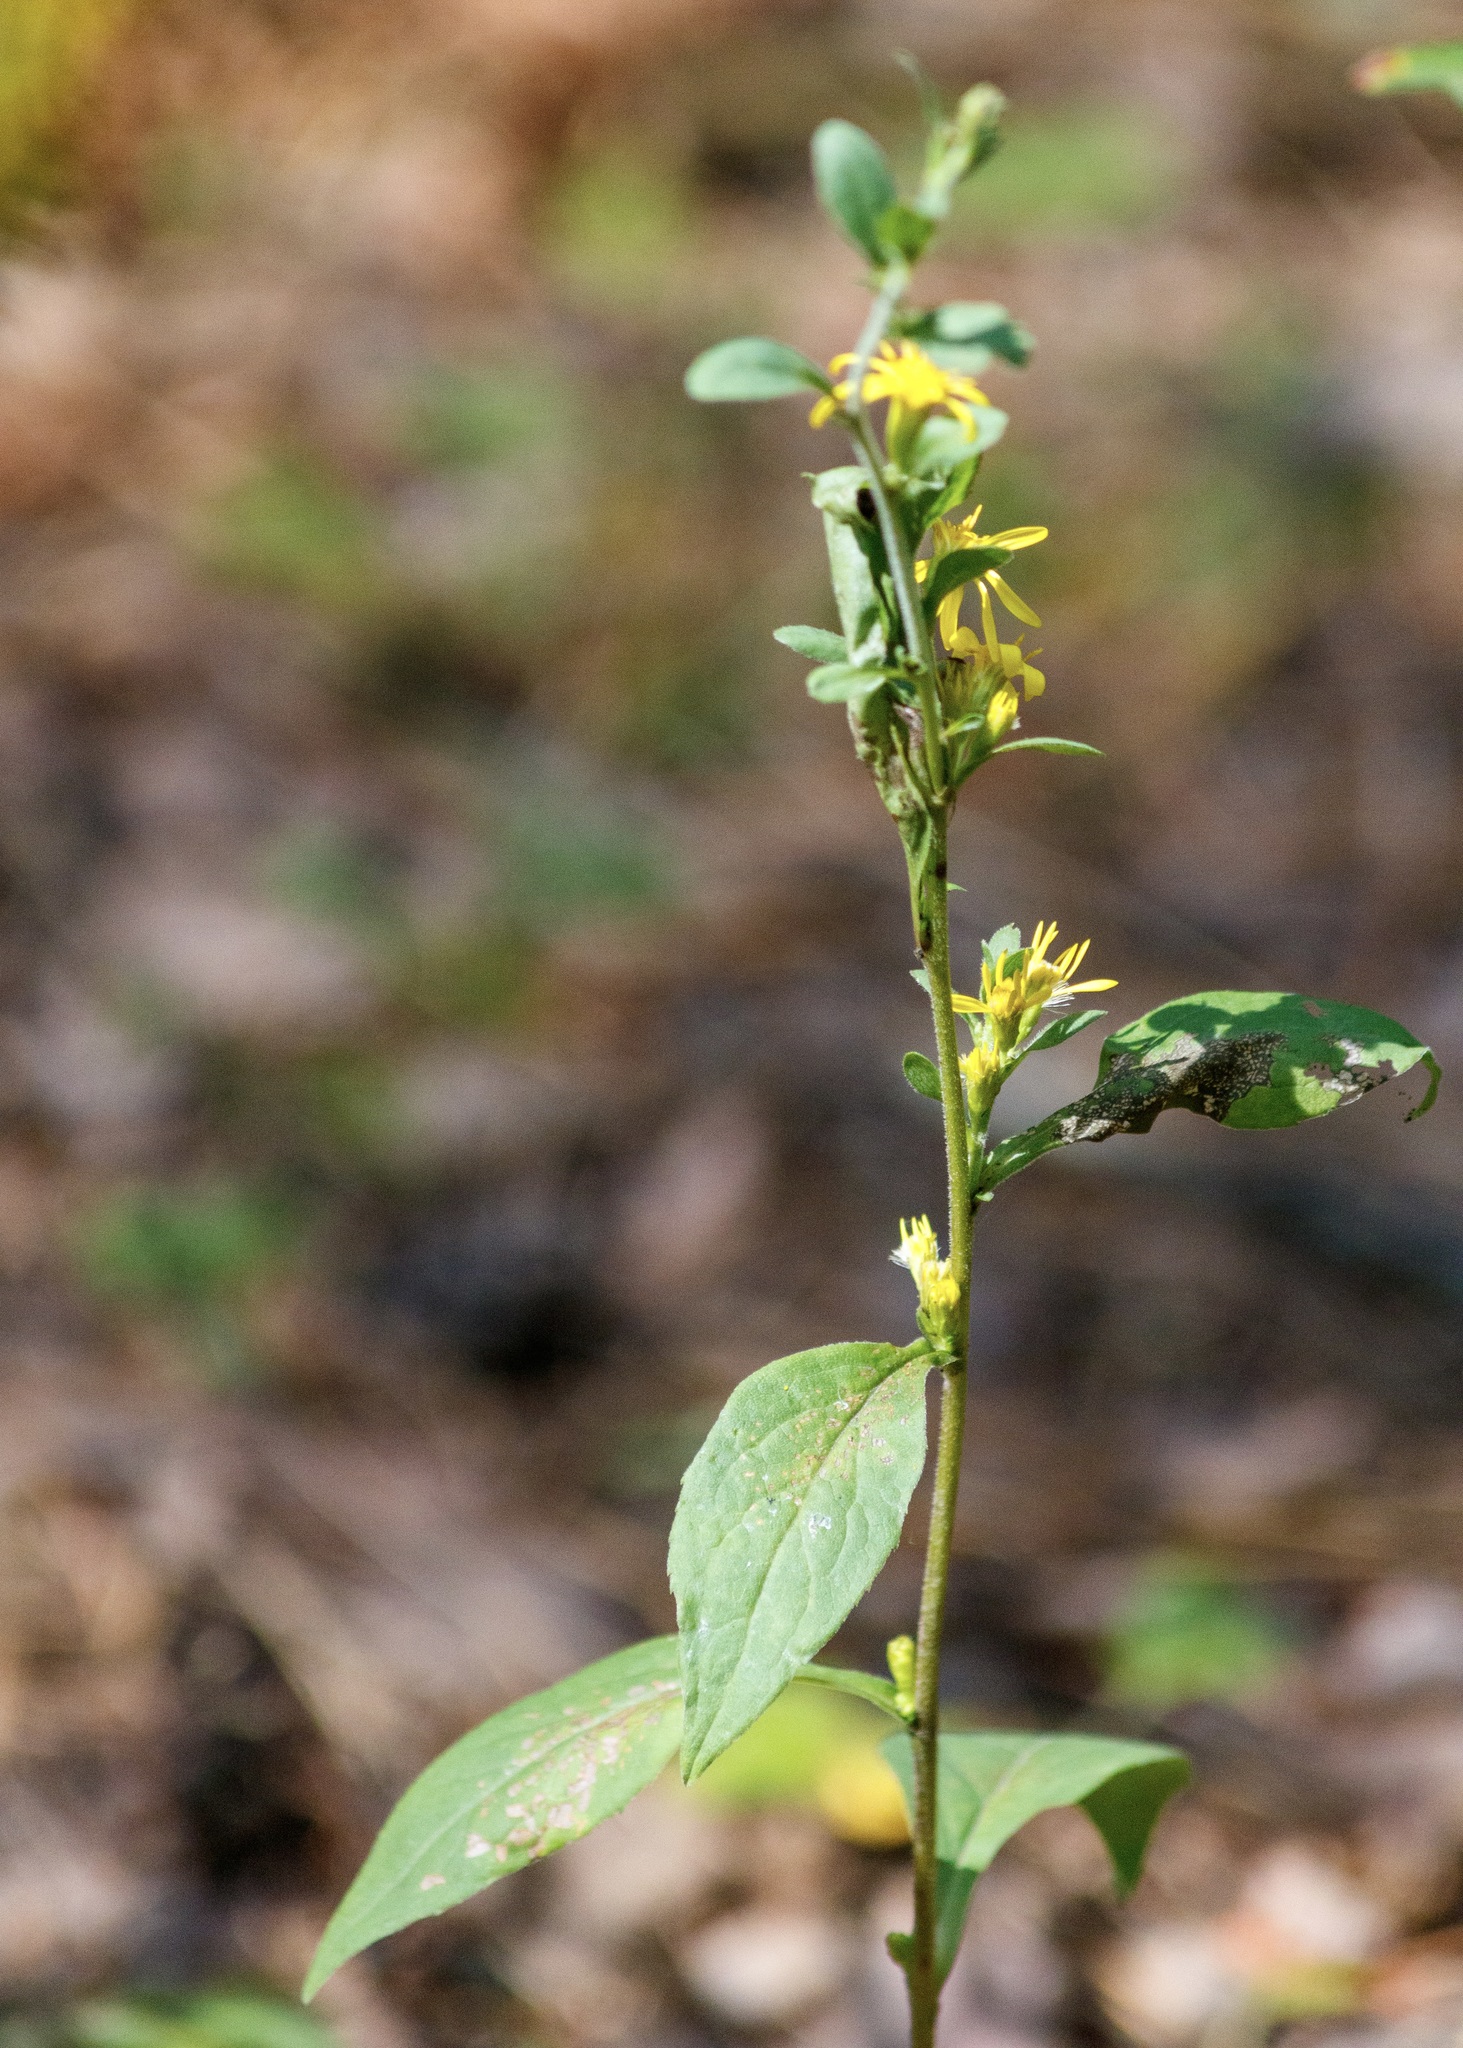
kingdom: Plantae
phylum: Tracheophyta
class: Magnoliopsida
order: Asterales
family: Asteraceae
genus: Solidago
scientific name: Solidago virgaurea
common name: Goldenrod
